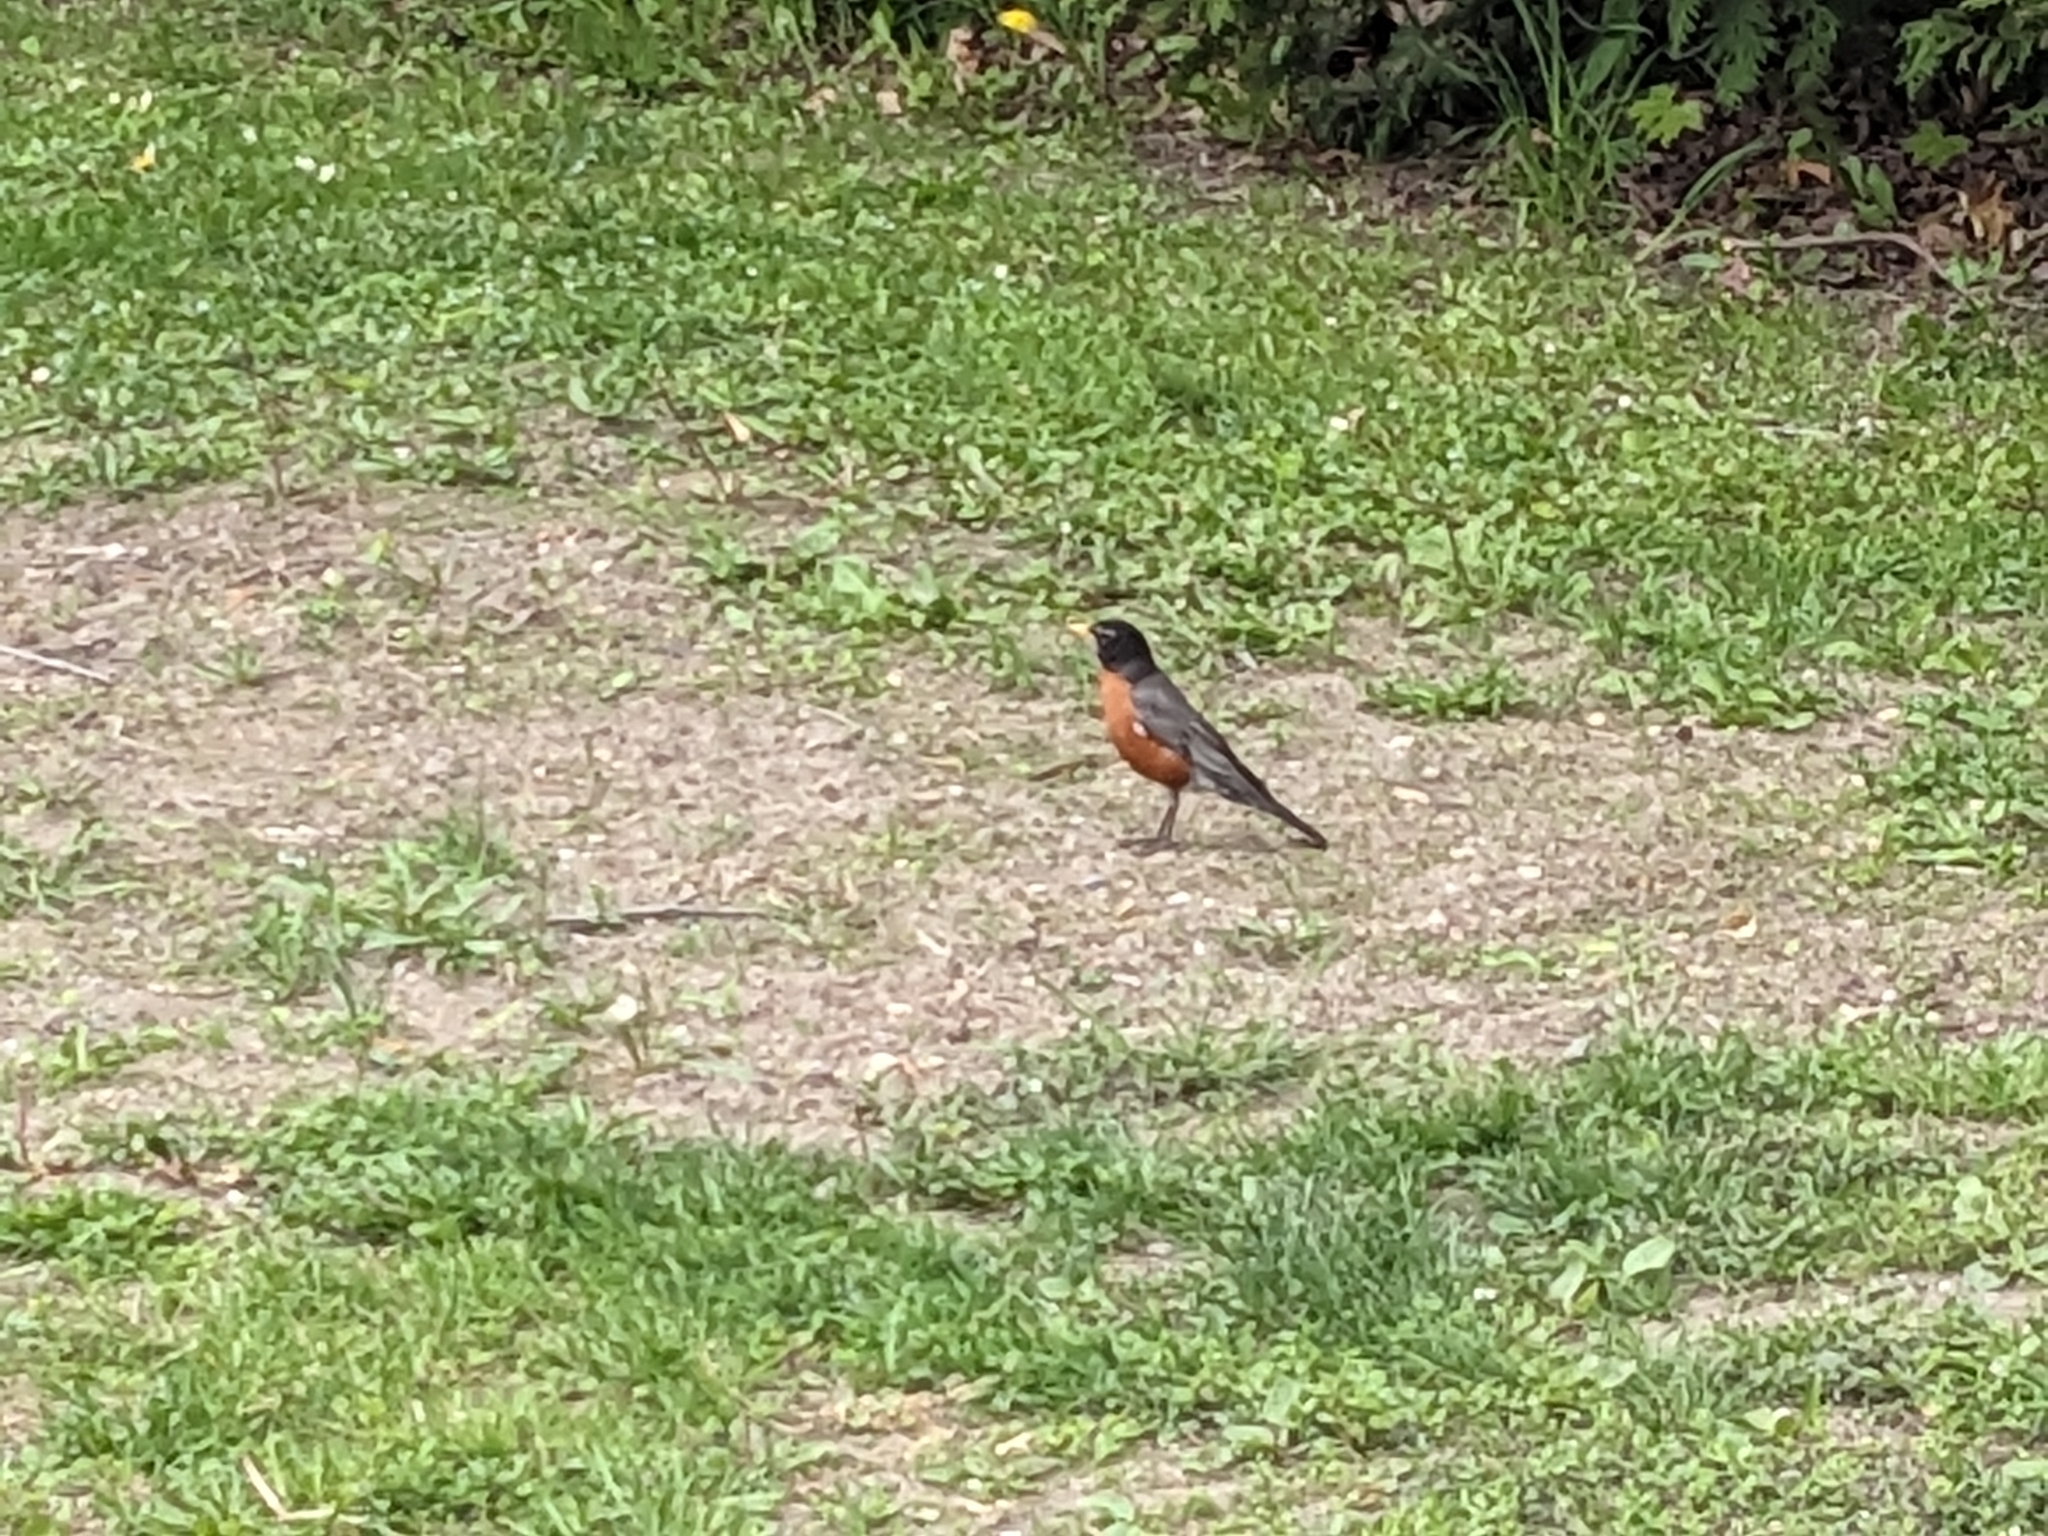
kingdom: Animalia
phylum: Chordata
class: Aves
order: Passeriformes
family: Turdidae
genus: Turdus
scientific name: Turdus migratorius
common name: American robin
